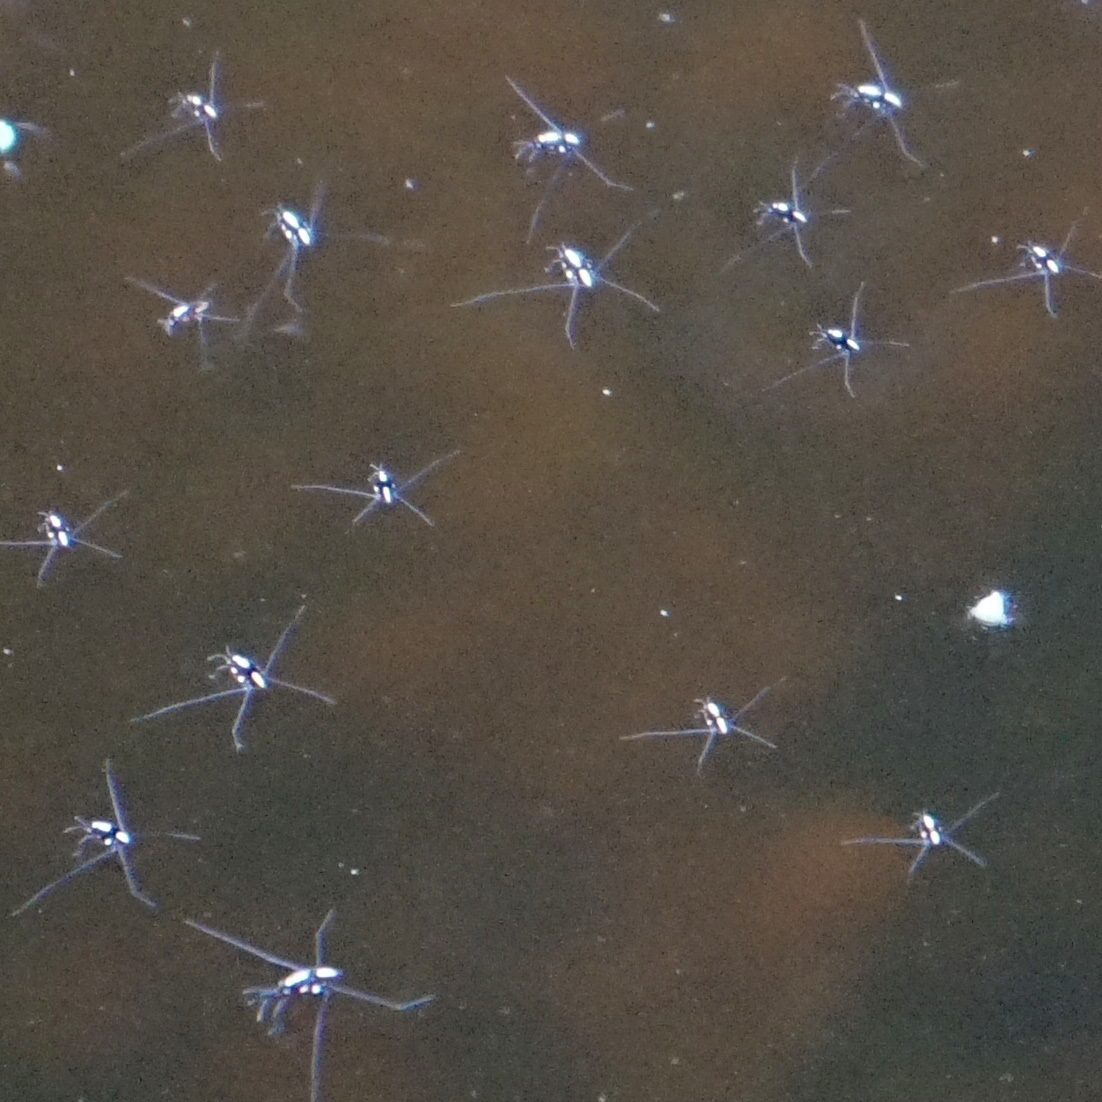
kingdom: Animalia
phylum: Arthropoda
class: Insecta
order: Hemiptera
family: Gerridae
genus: Metrobates
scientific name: Metrobates hesperius
